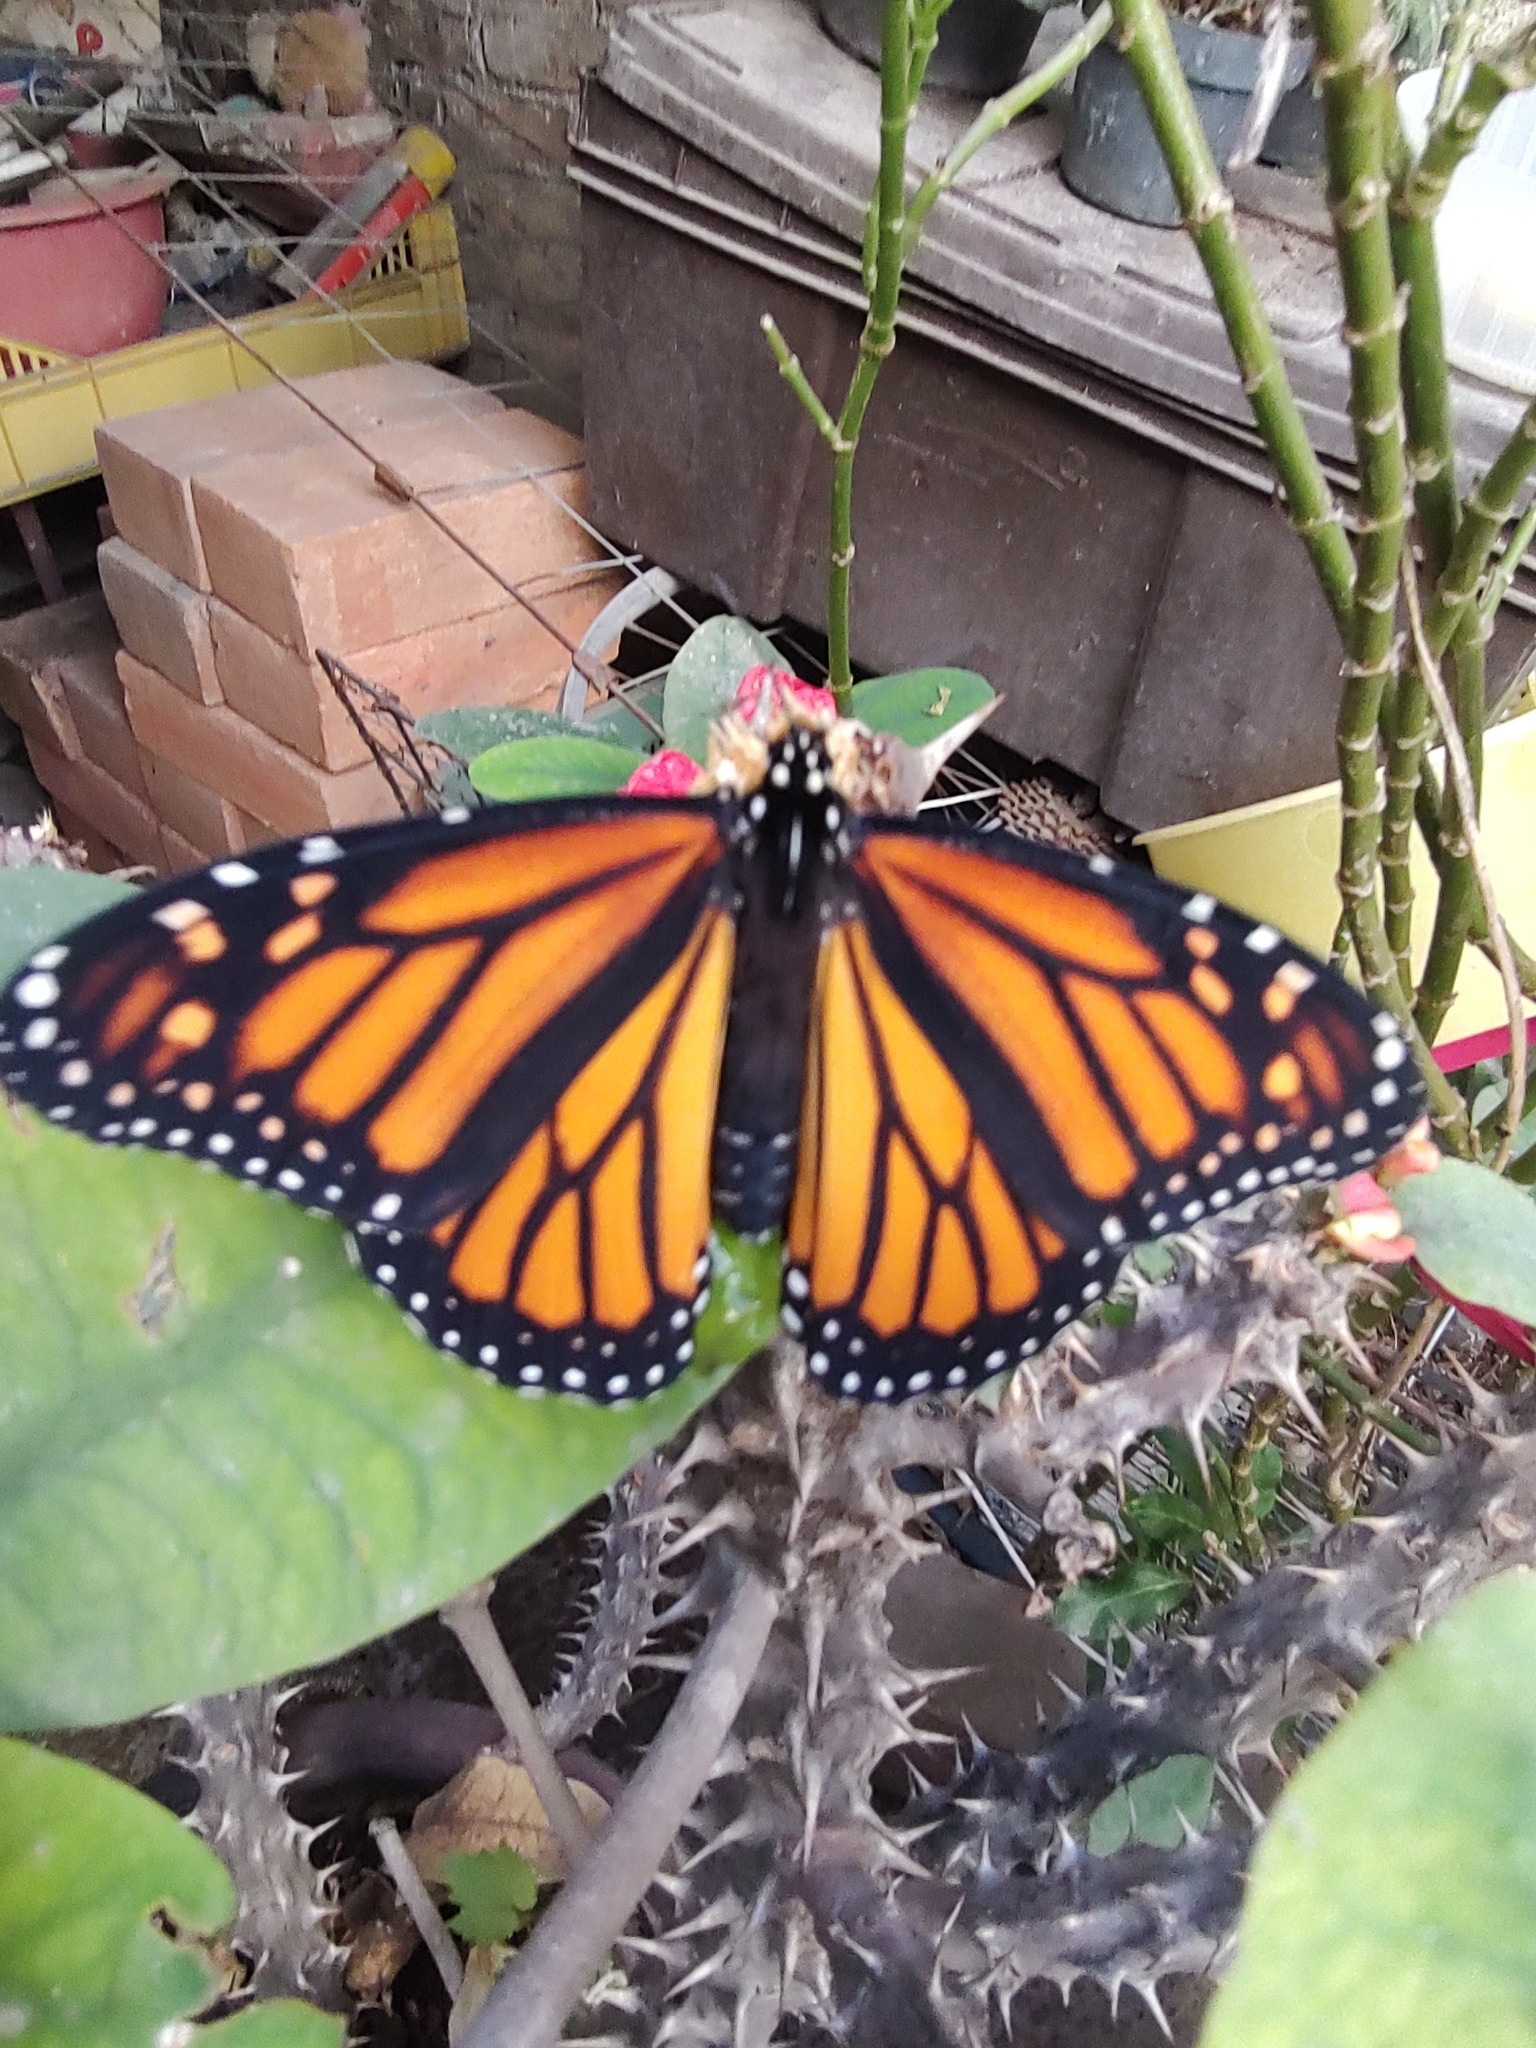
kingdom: Animalia
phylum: Arthropoda
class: Insecta
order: Lepidoptera
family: Nymphalidae
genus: Danaus
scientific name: Danaus plexippus
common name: Monarch
